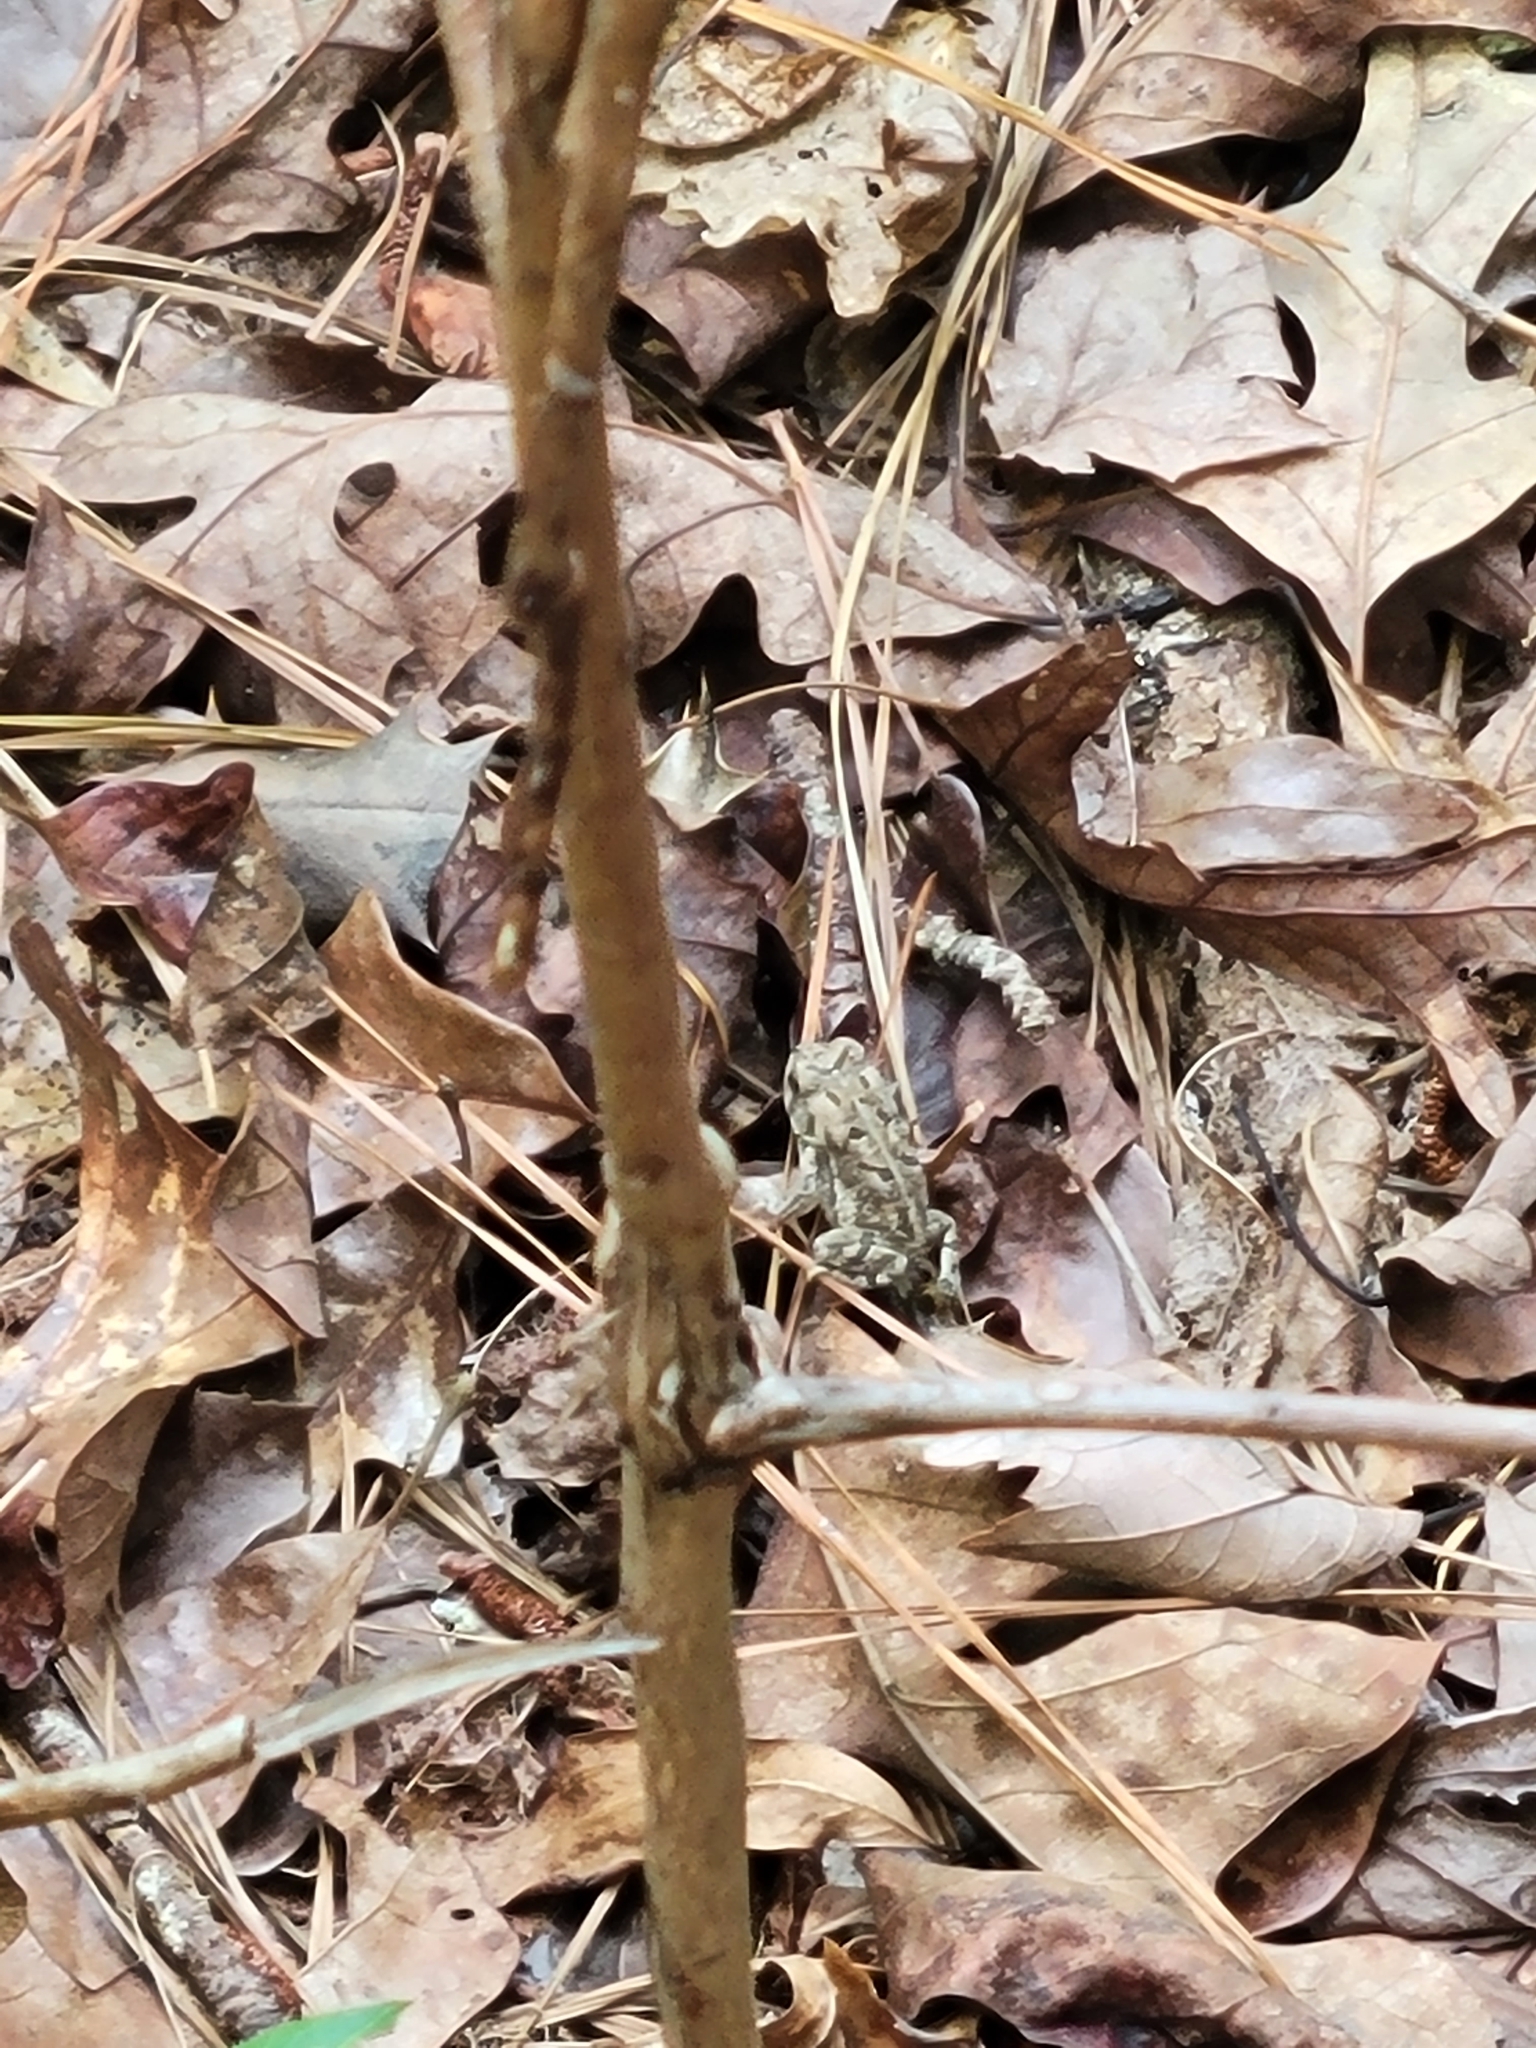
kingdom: Animalia
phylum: Chordata
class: Amphibia
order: Anura
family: Bufonidae
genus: Anaxyrus
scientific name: Anaxyrus terrestris
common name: Southern toad
